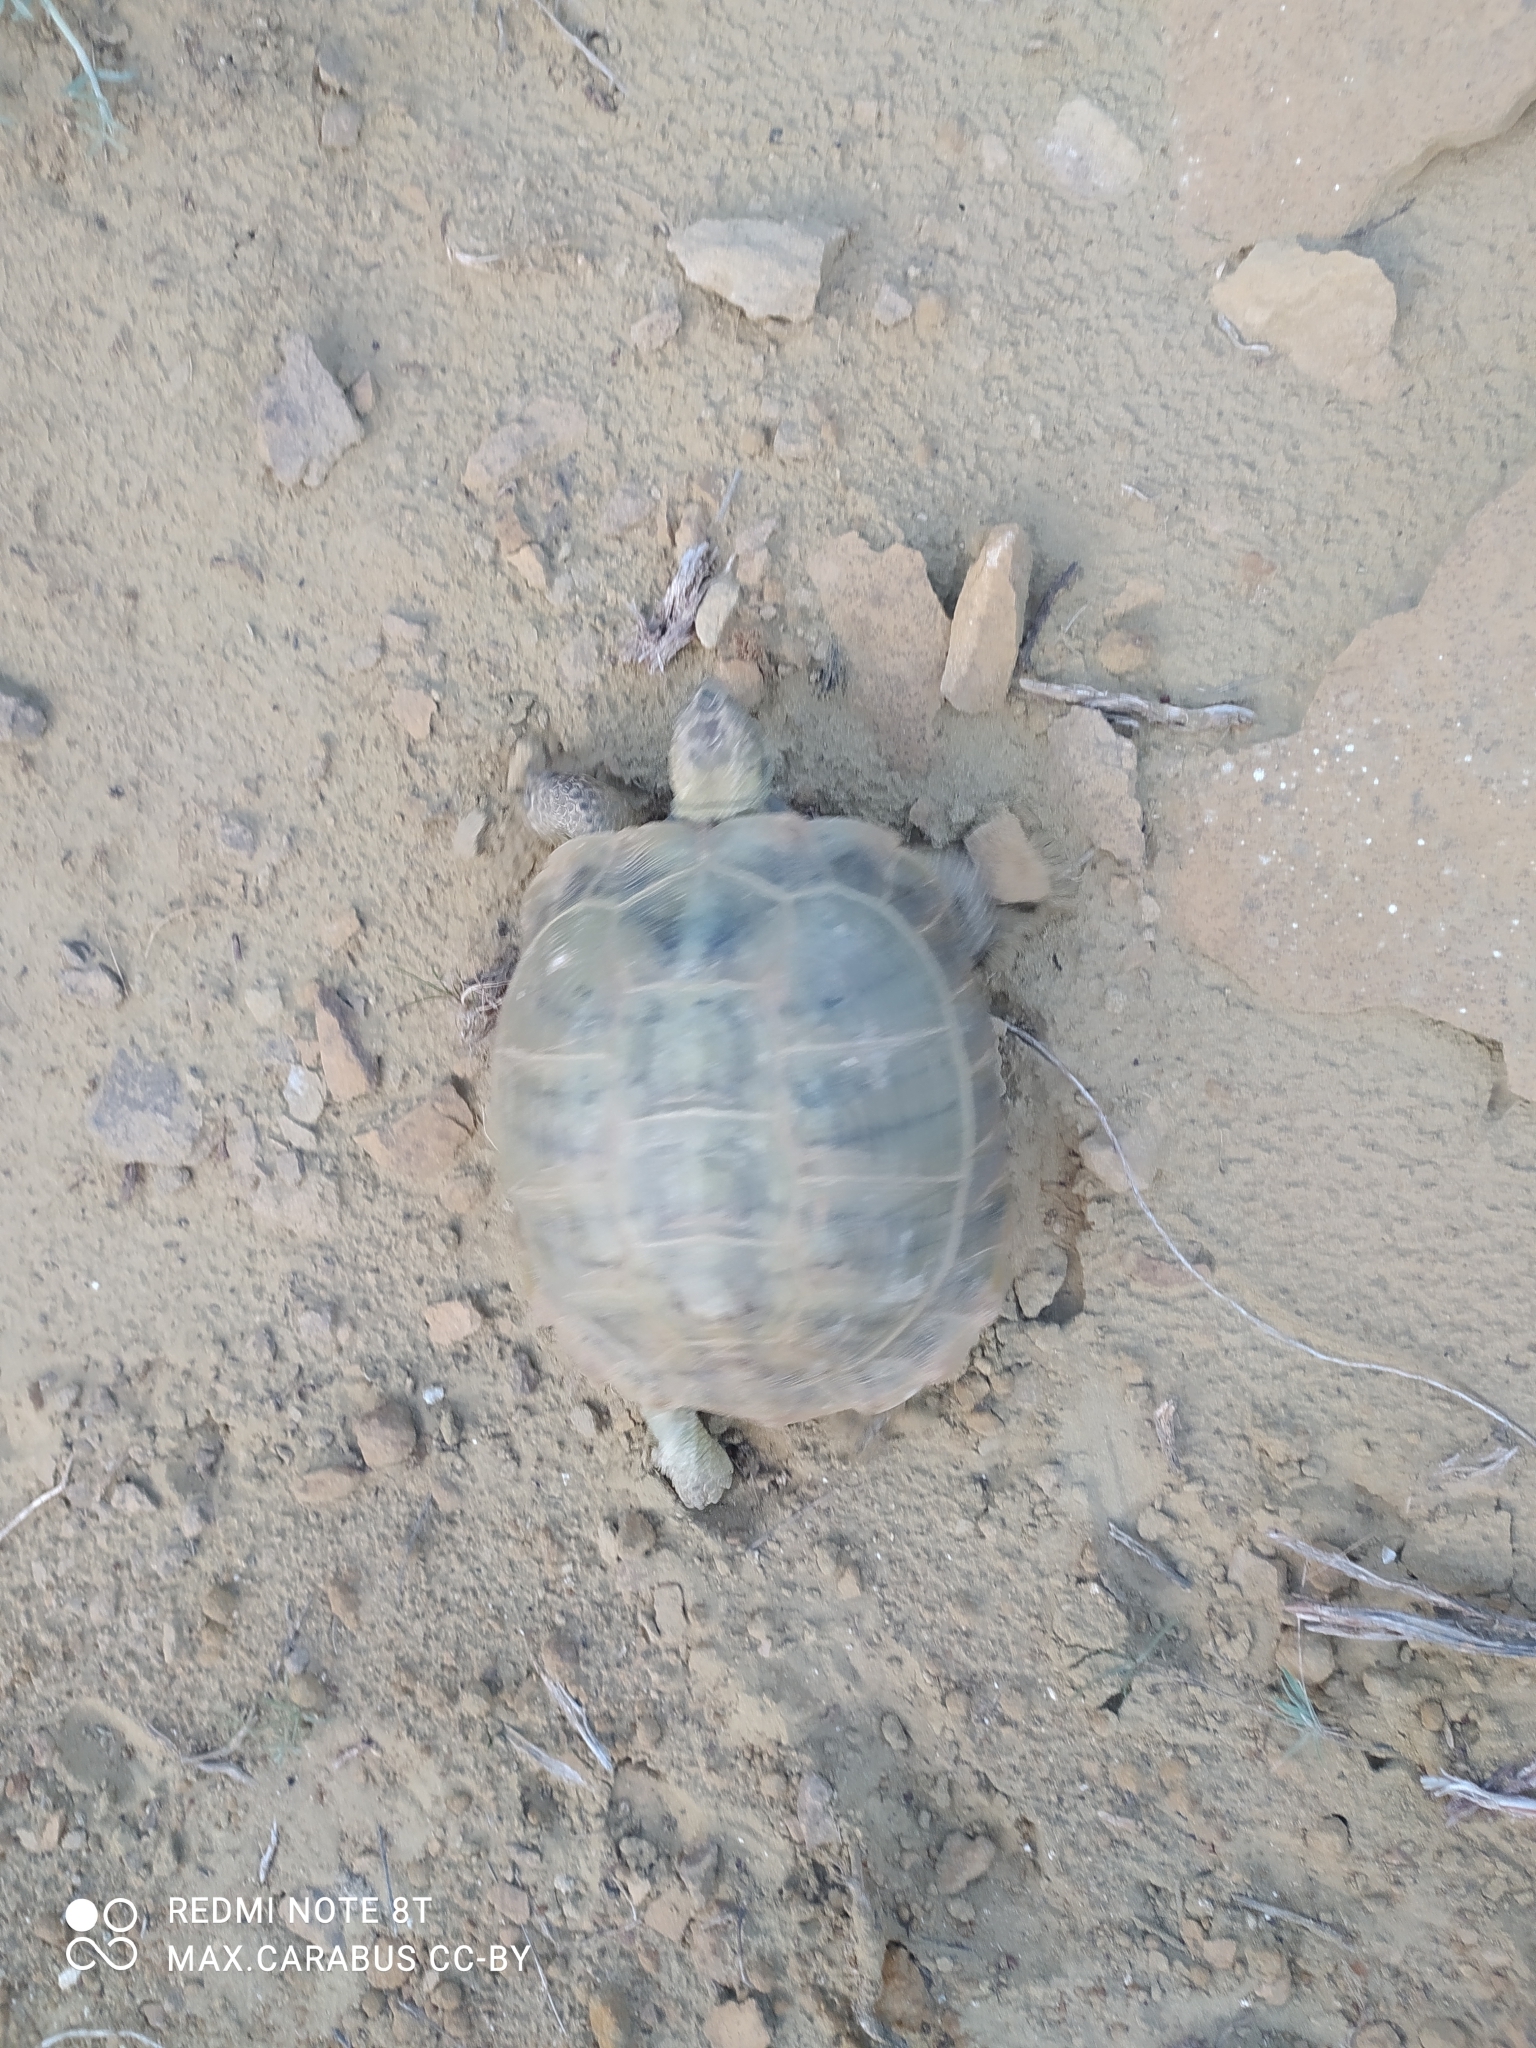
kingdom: Animalia
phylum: Chordata
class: Testudines
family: Testudinidae
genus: Testudo
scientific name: Testudo horsfieldii
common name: Central asia tortoise
